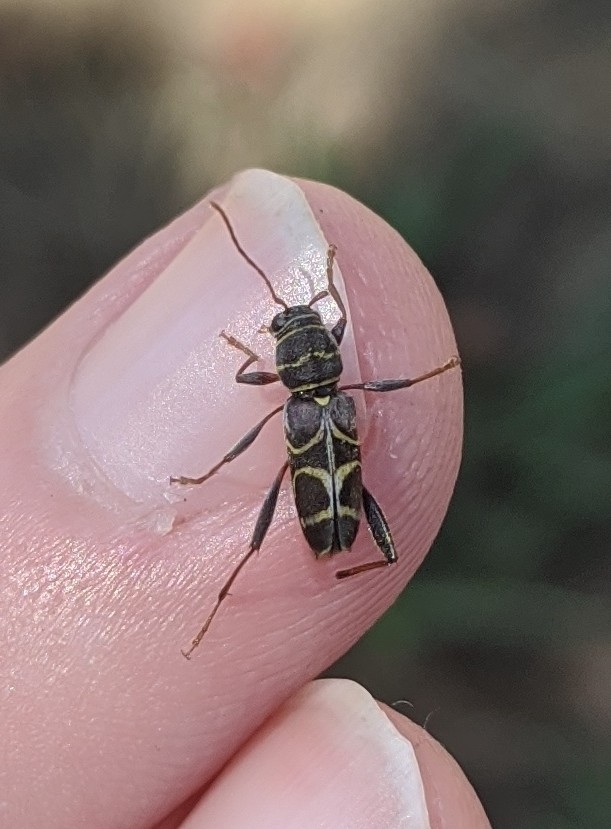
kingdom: Animalia
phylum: Arthropoda
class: Insecta
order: Coleoptera
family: Cerambycidae
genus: Neoclytus
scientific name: Neoclytus scutellaris
